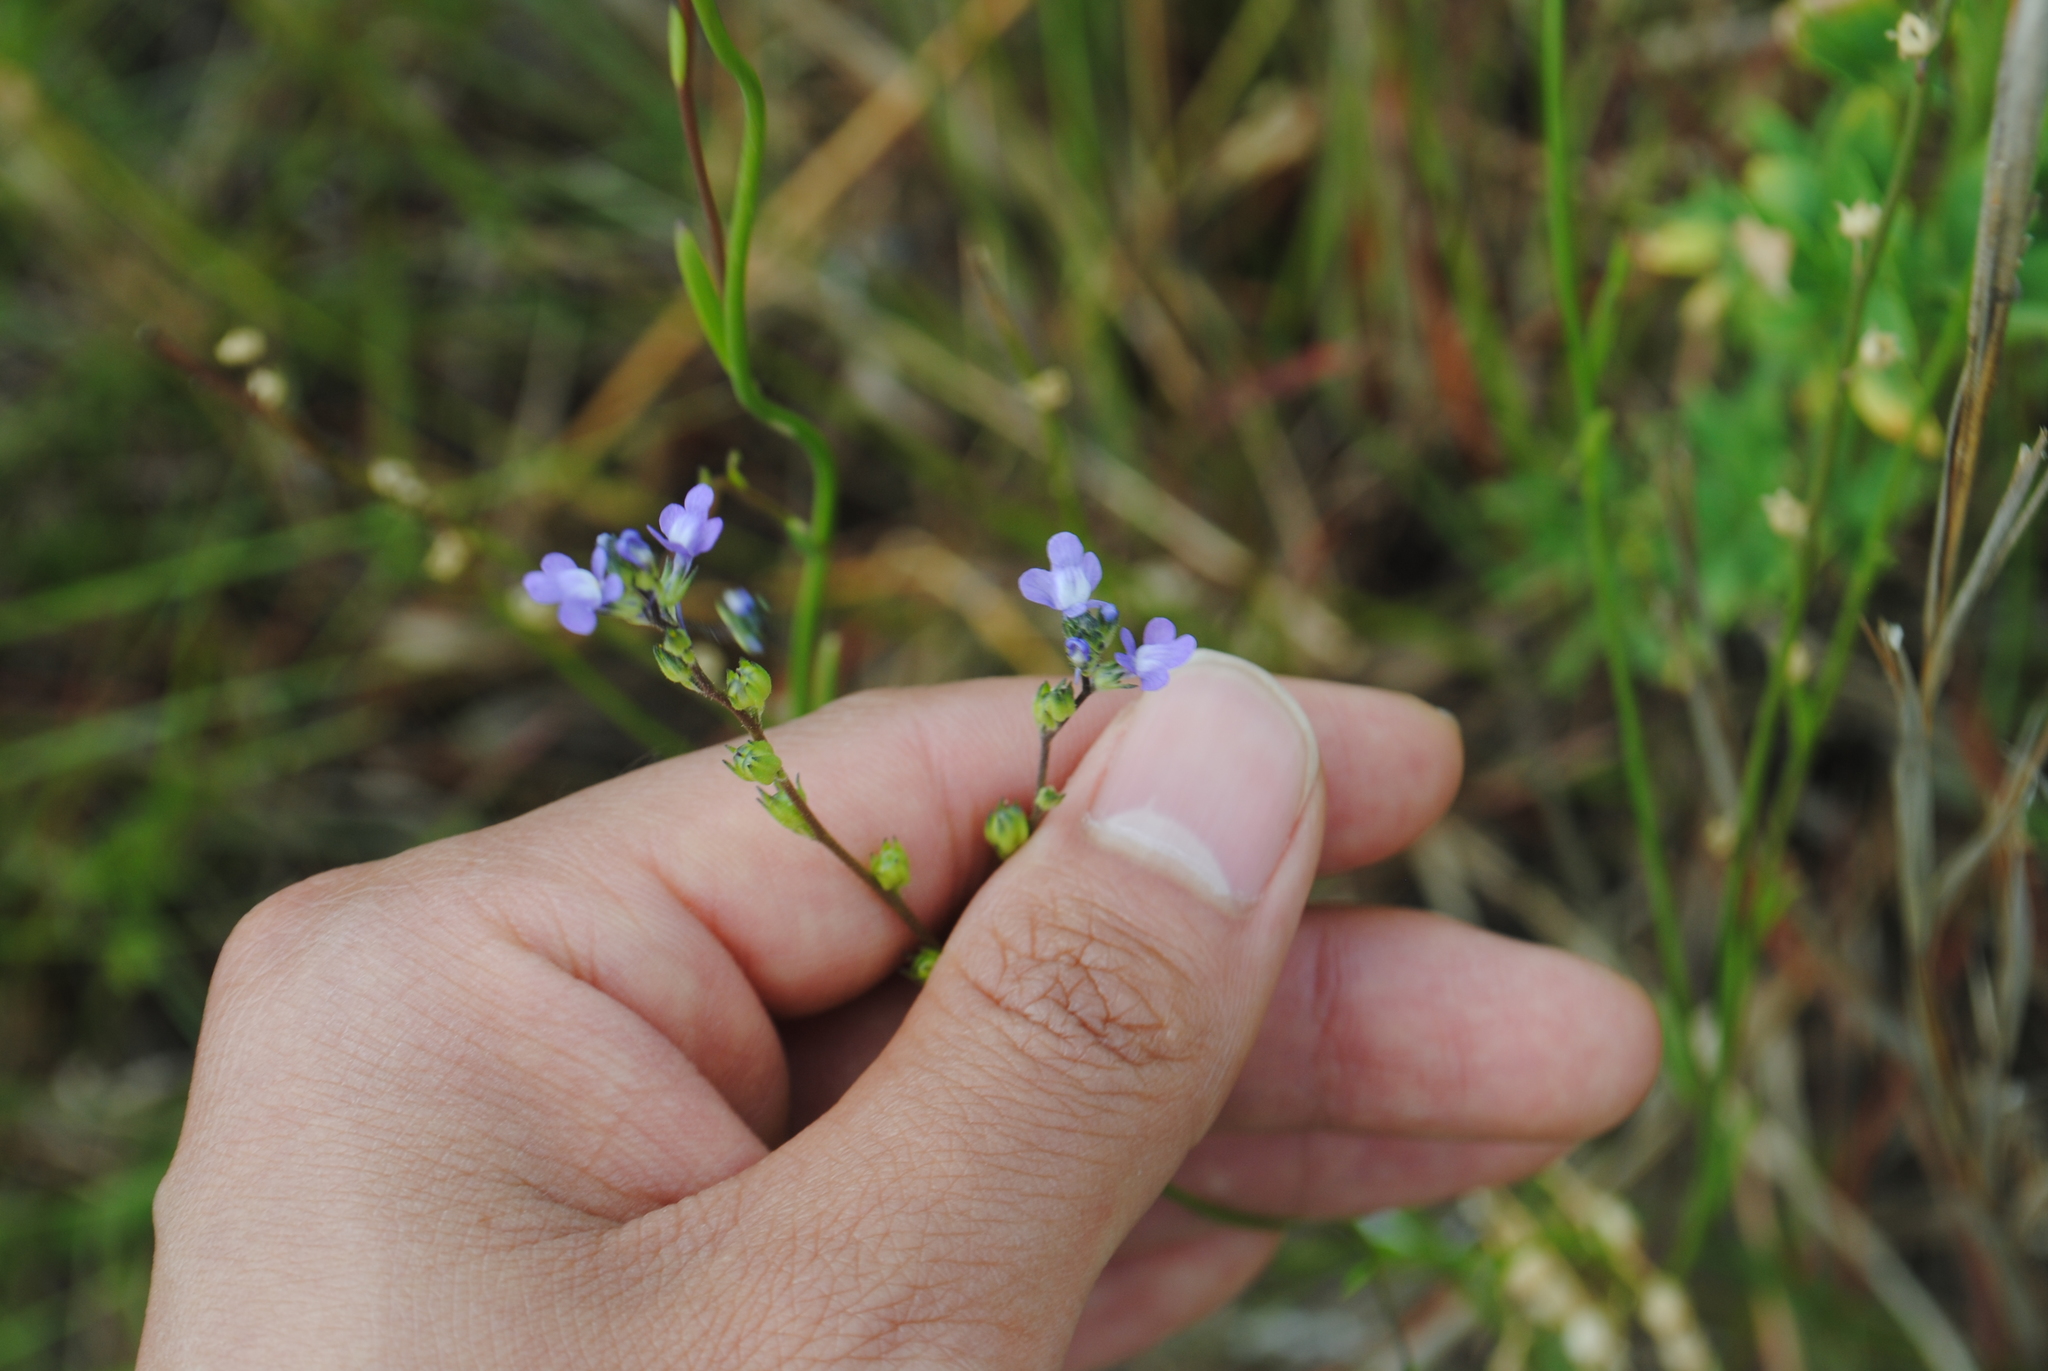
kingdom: Plantae
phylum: Tracheophyta
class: Magnoliopsida
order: Lamiales
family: Plantaginaceae
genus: Nuttallanthus
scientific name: Nuttallanthus canadensis
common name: Blue toadflax
